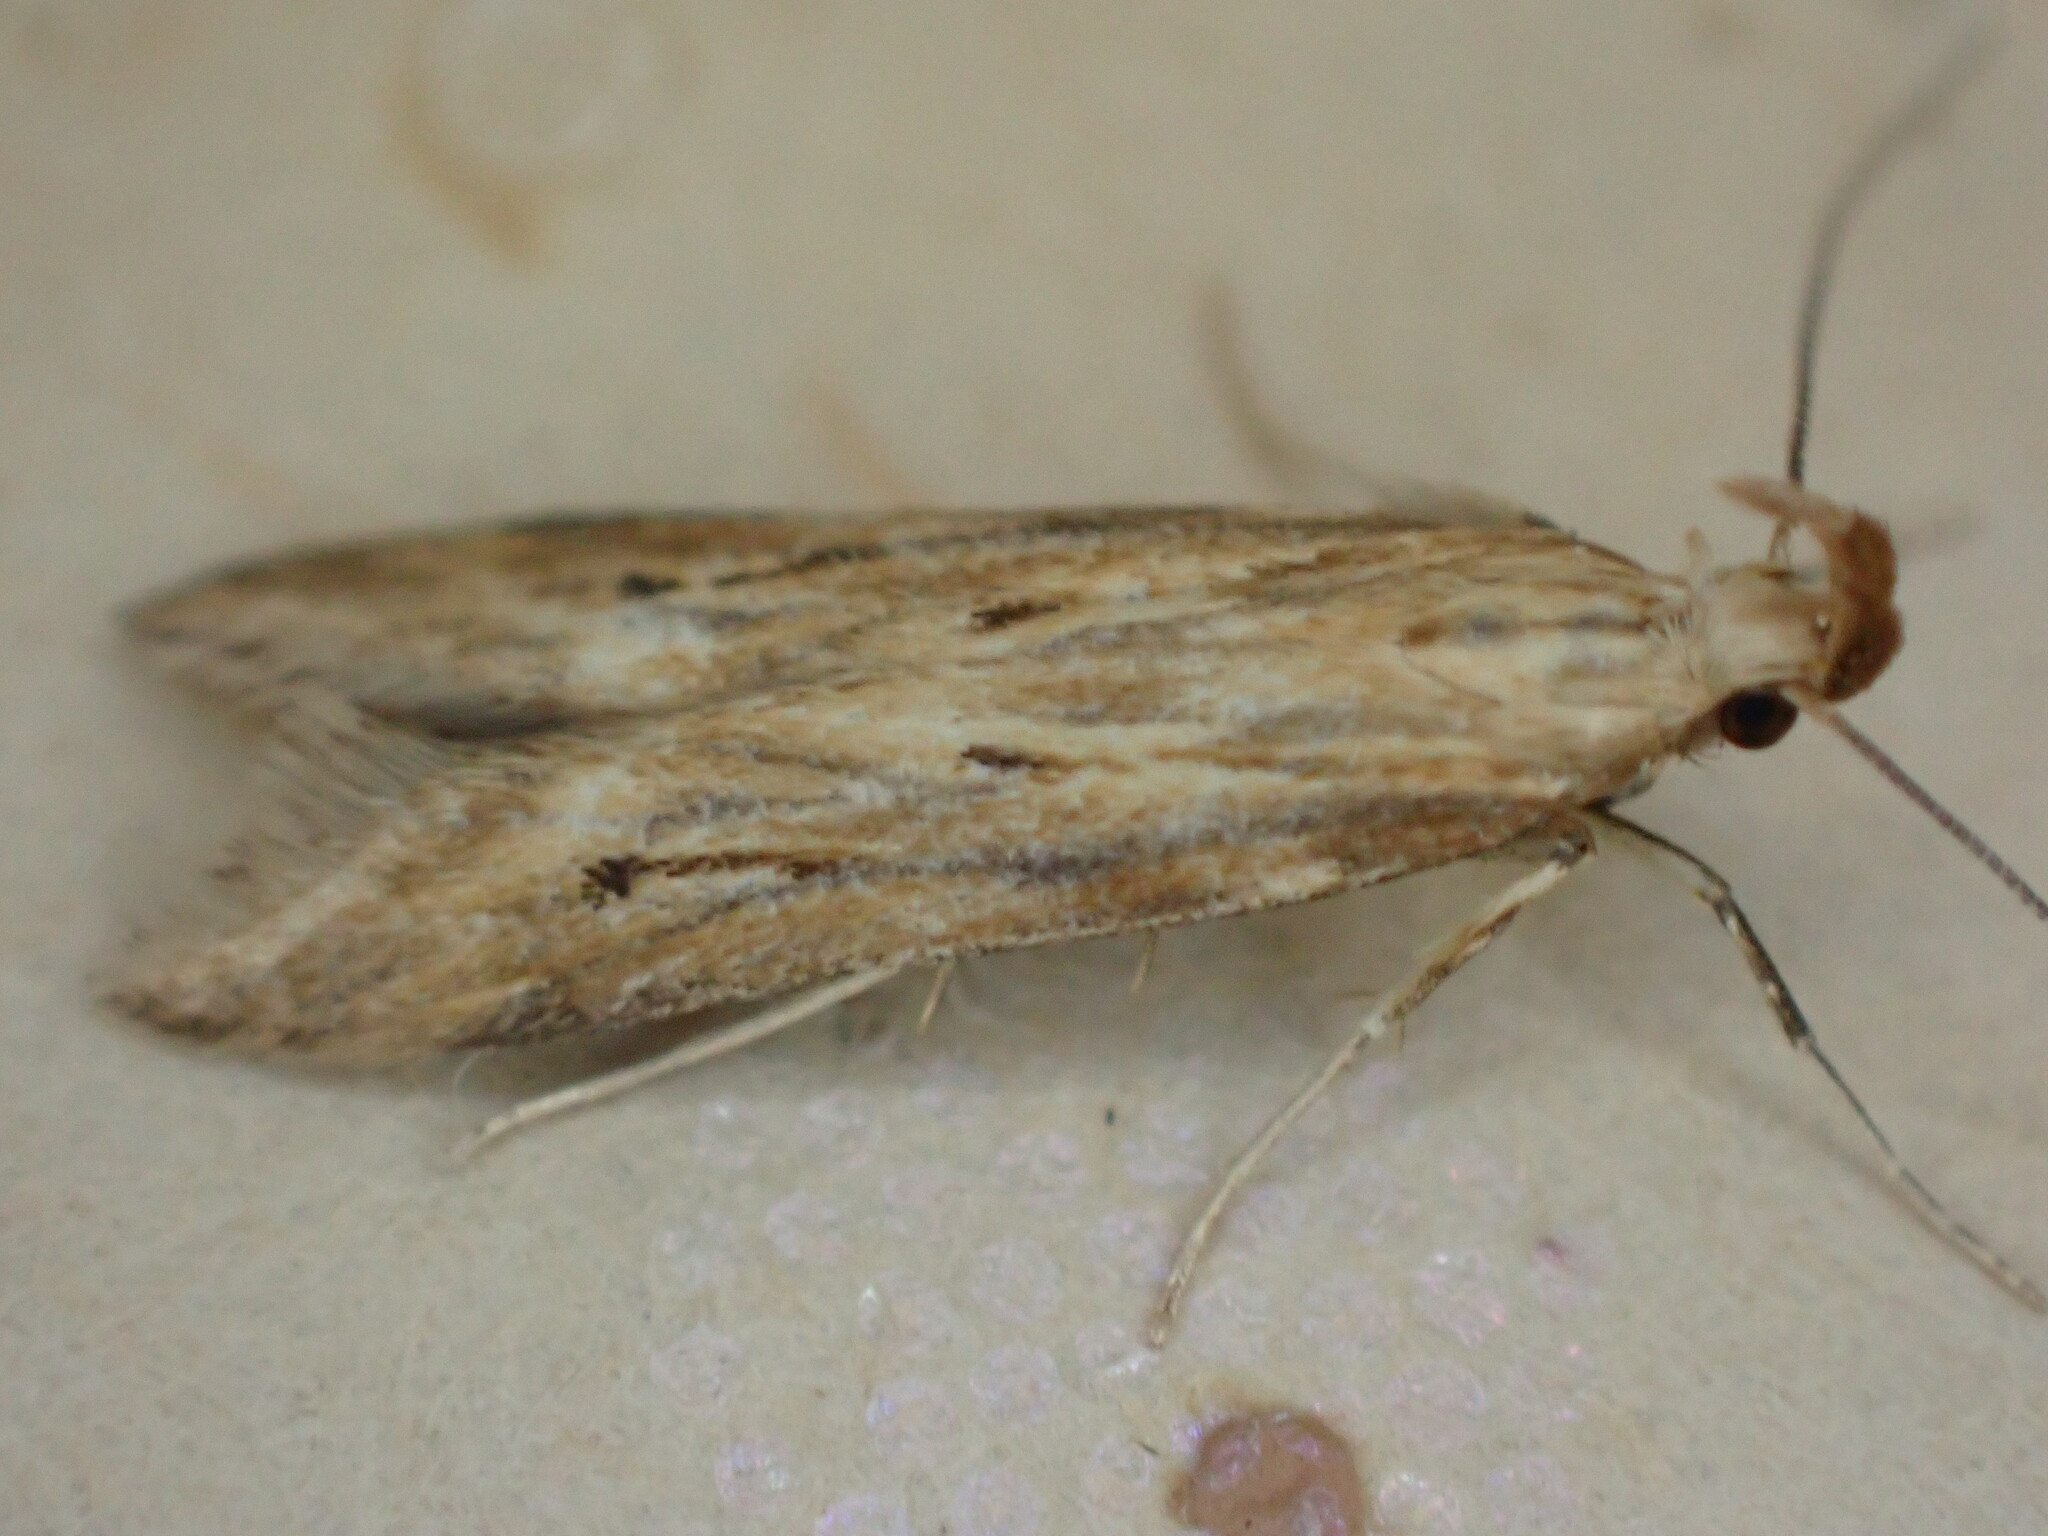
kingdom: Animalia
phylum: Arthropoda
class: Insecta
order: Lepidoptera
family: Gelechiidae
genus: Metzneria
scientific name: Metzneria lappella
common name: Burdock neb
